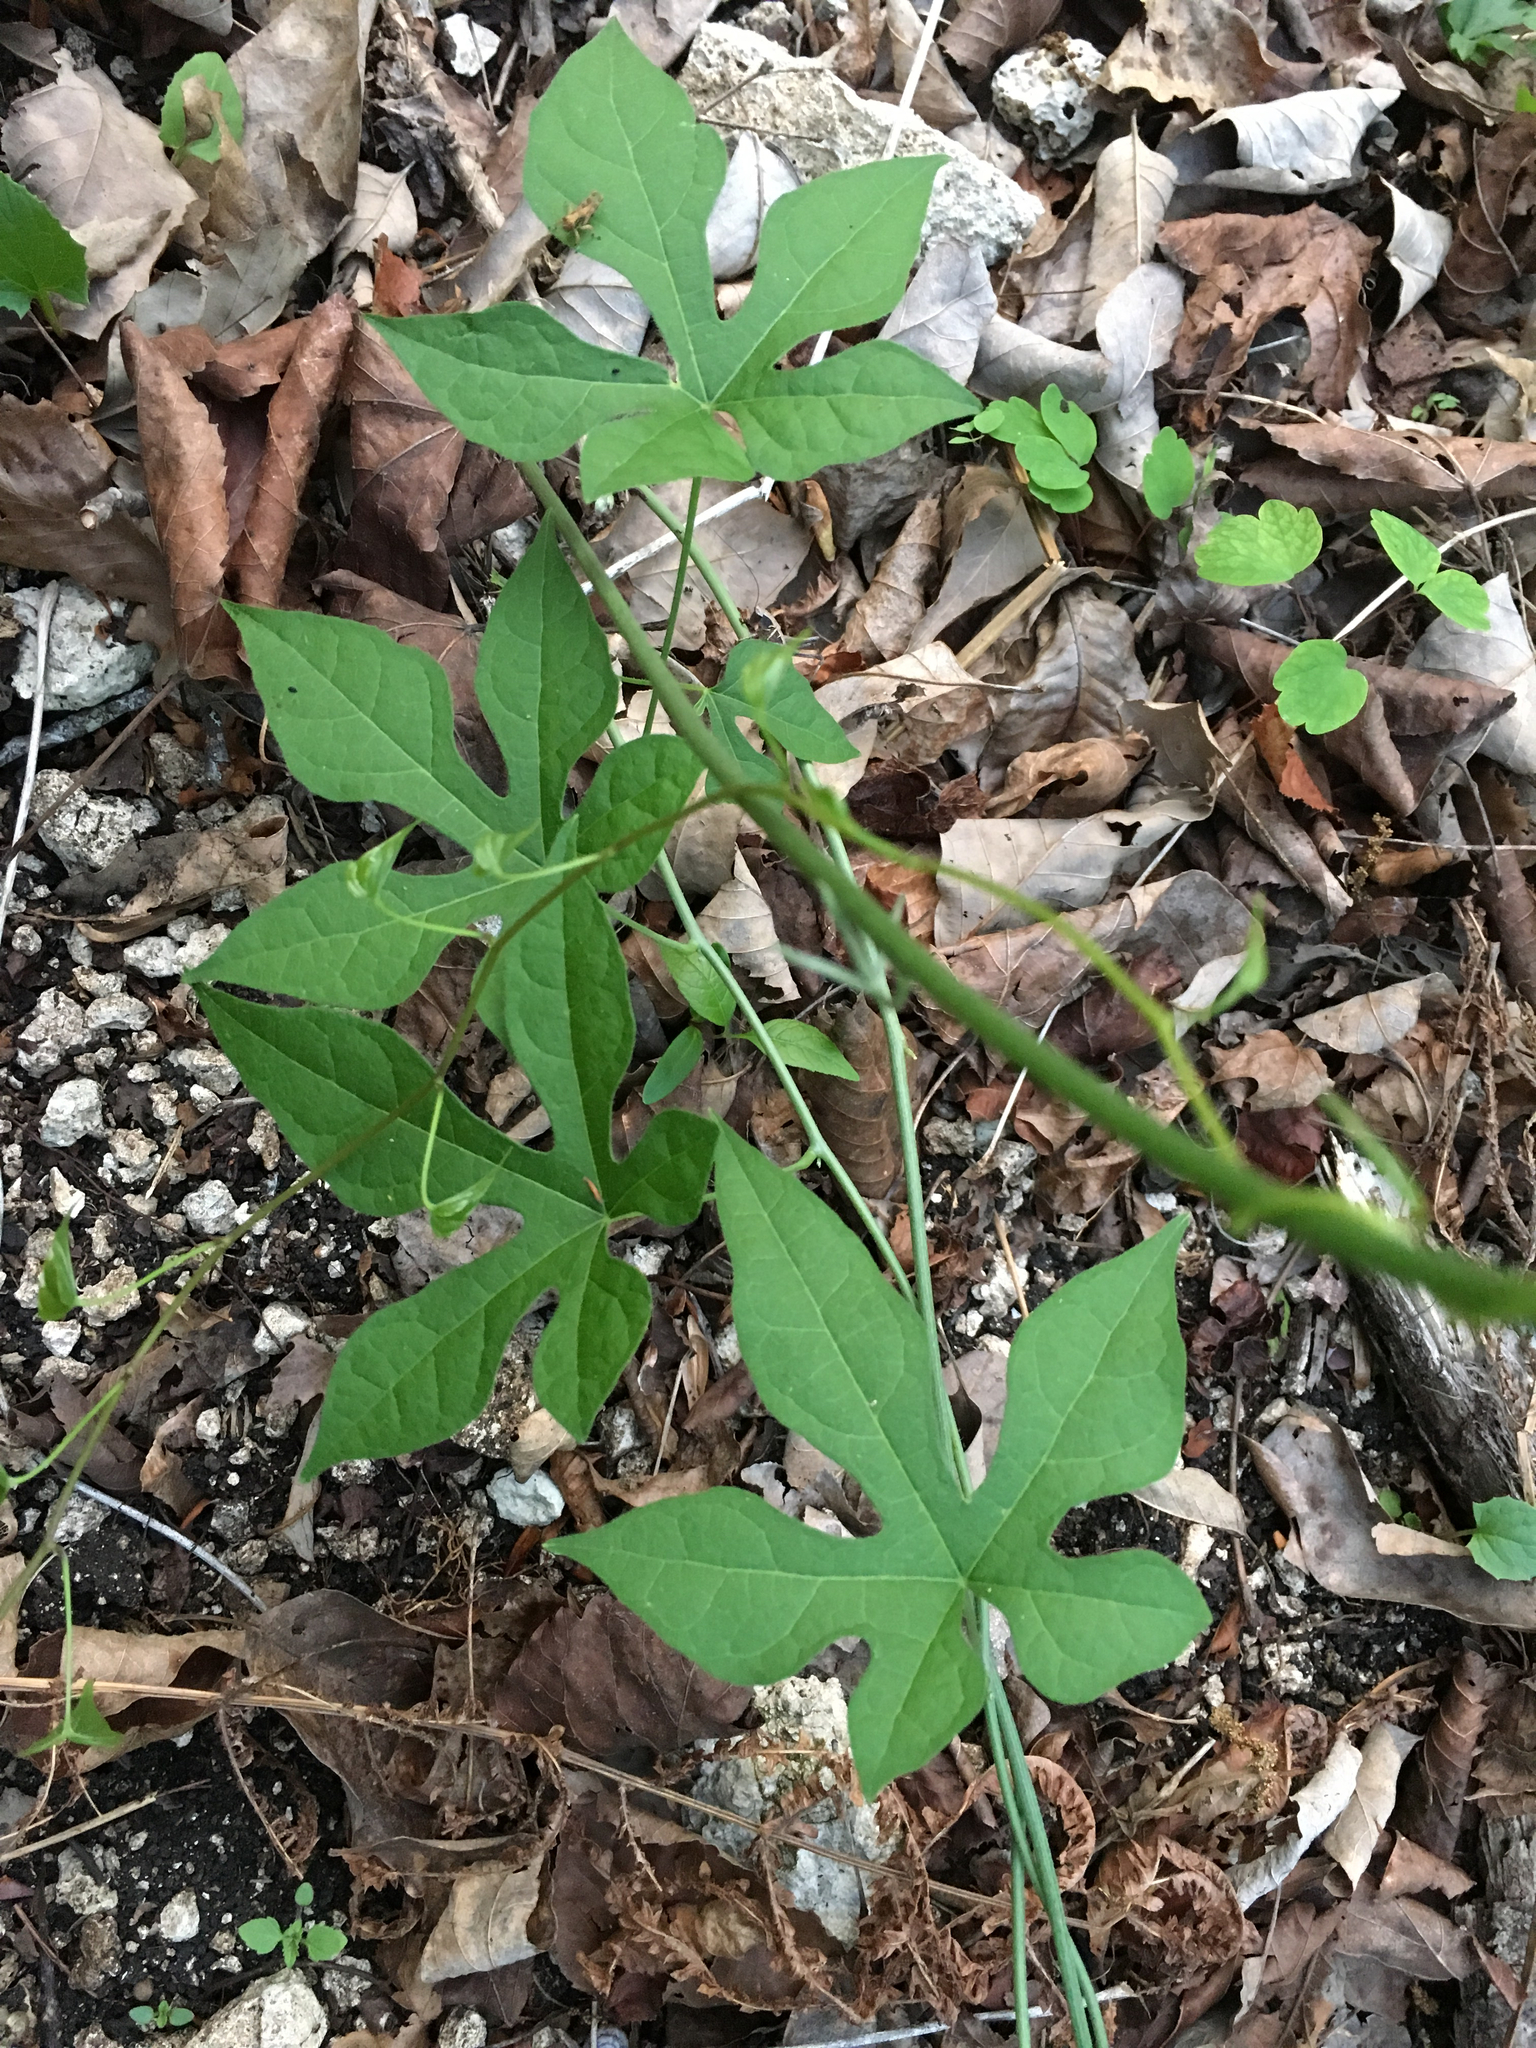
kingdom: Plantae
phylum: Tracheophyta
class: Magnoliopsida
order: Ranunculales
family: Menispermaceae
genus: Calycocarpum
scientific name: Calycocarpum lyonii
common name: Cupseed
